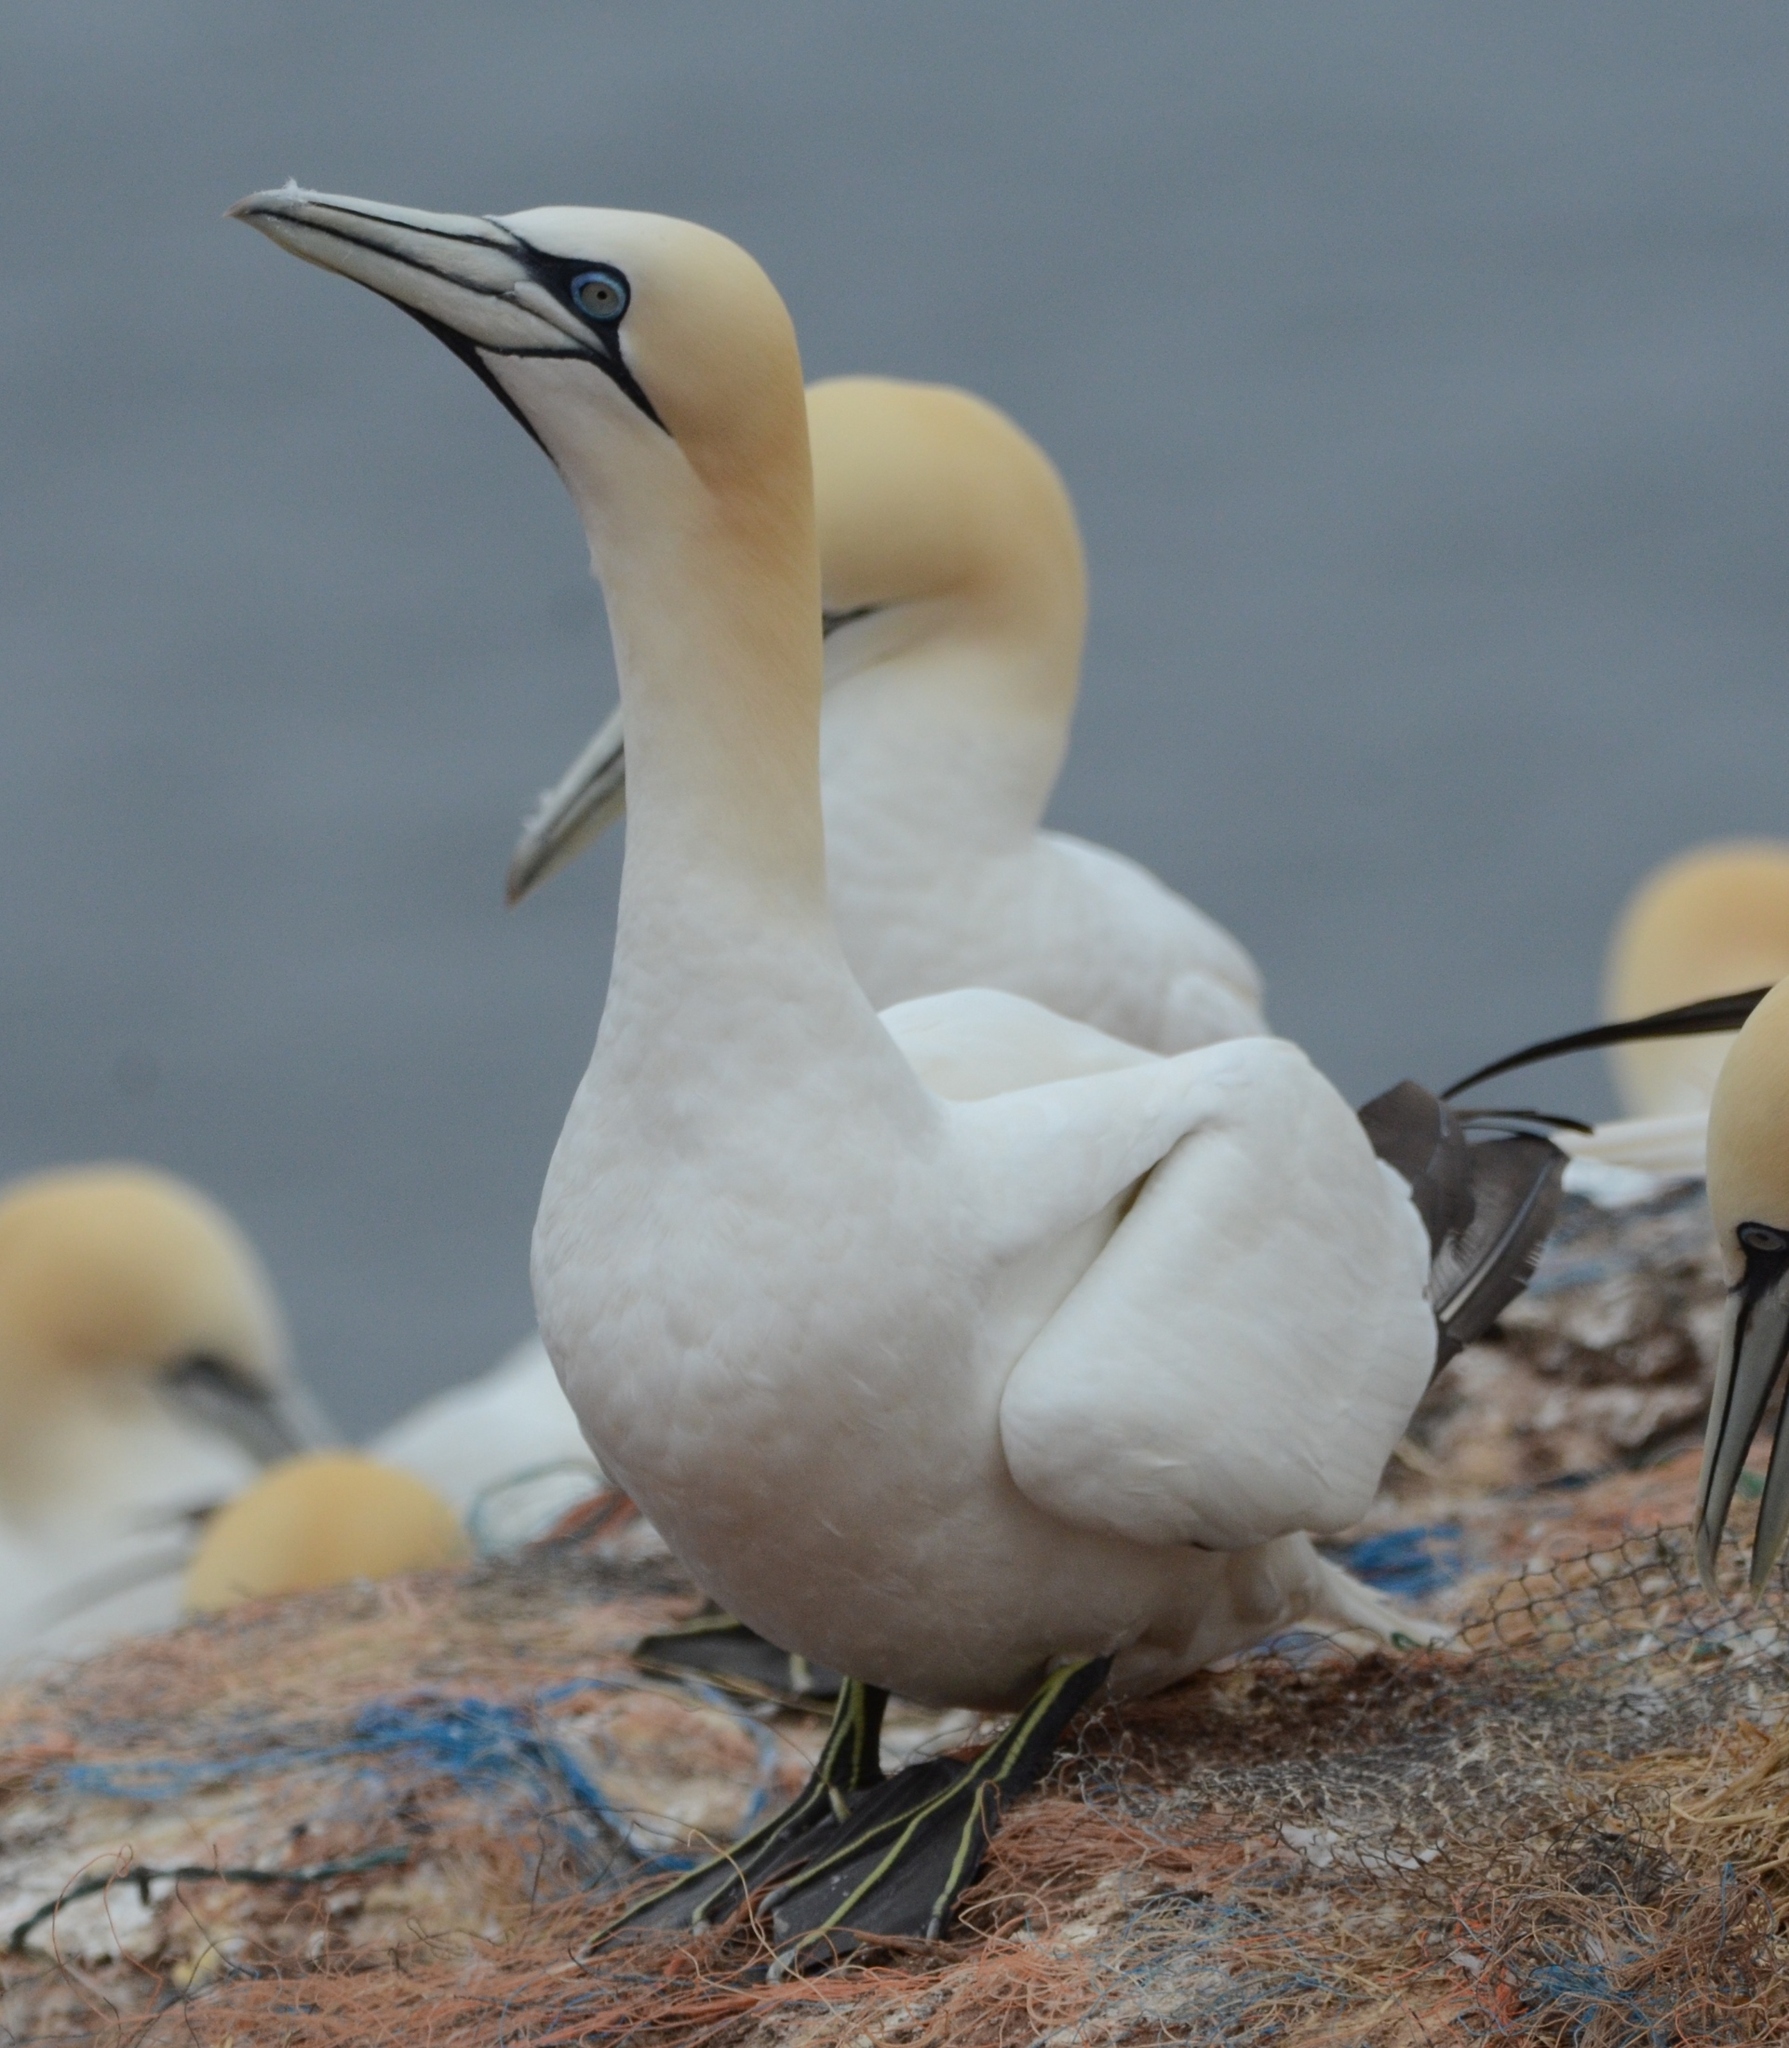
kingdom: Animalia
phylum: Chordata
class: Aves
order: Suliformes
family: Sulidae
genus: Morus
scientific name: Morus bassanus
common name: Northern gannet
